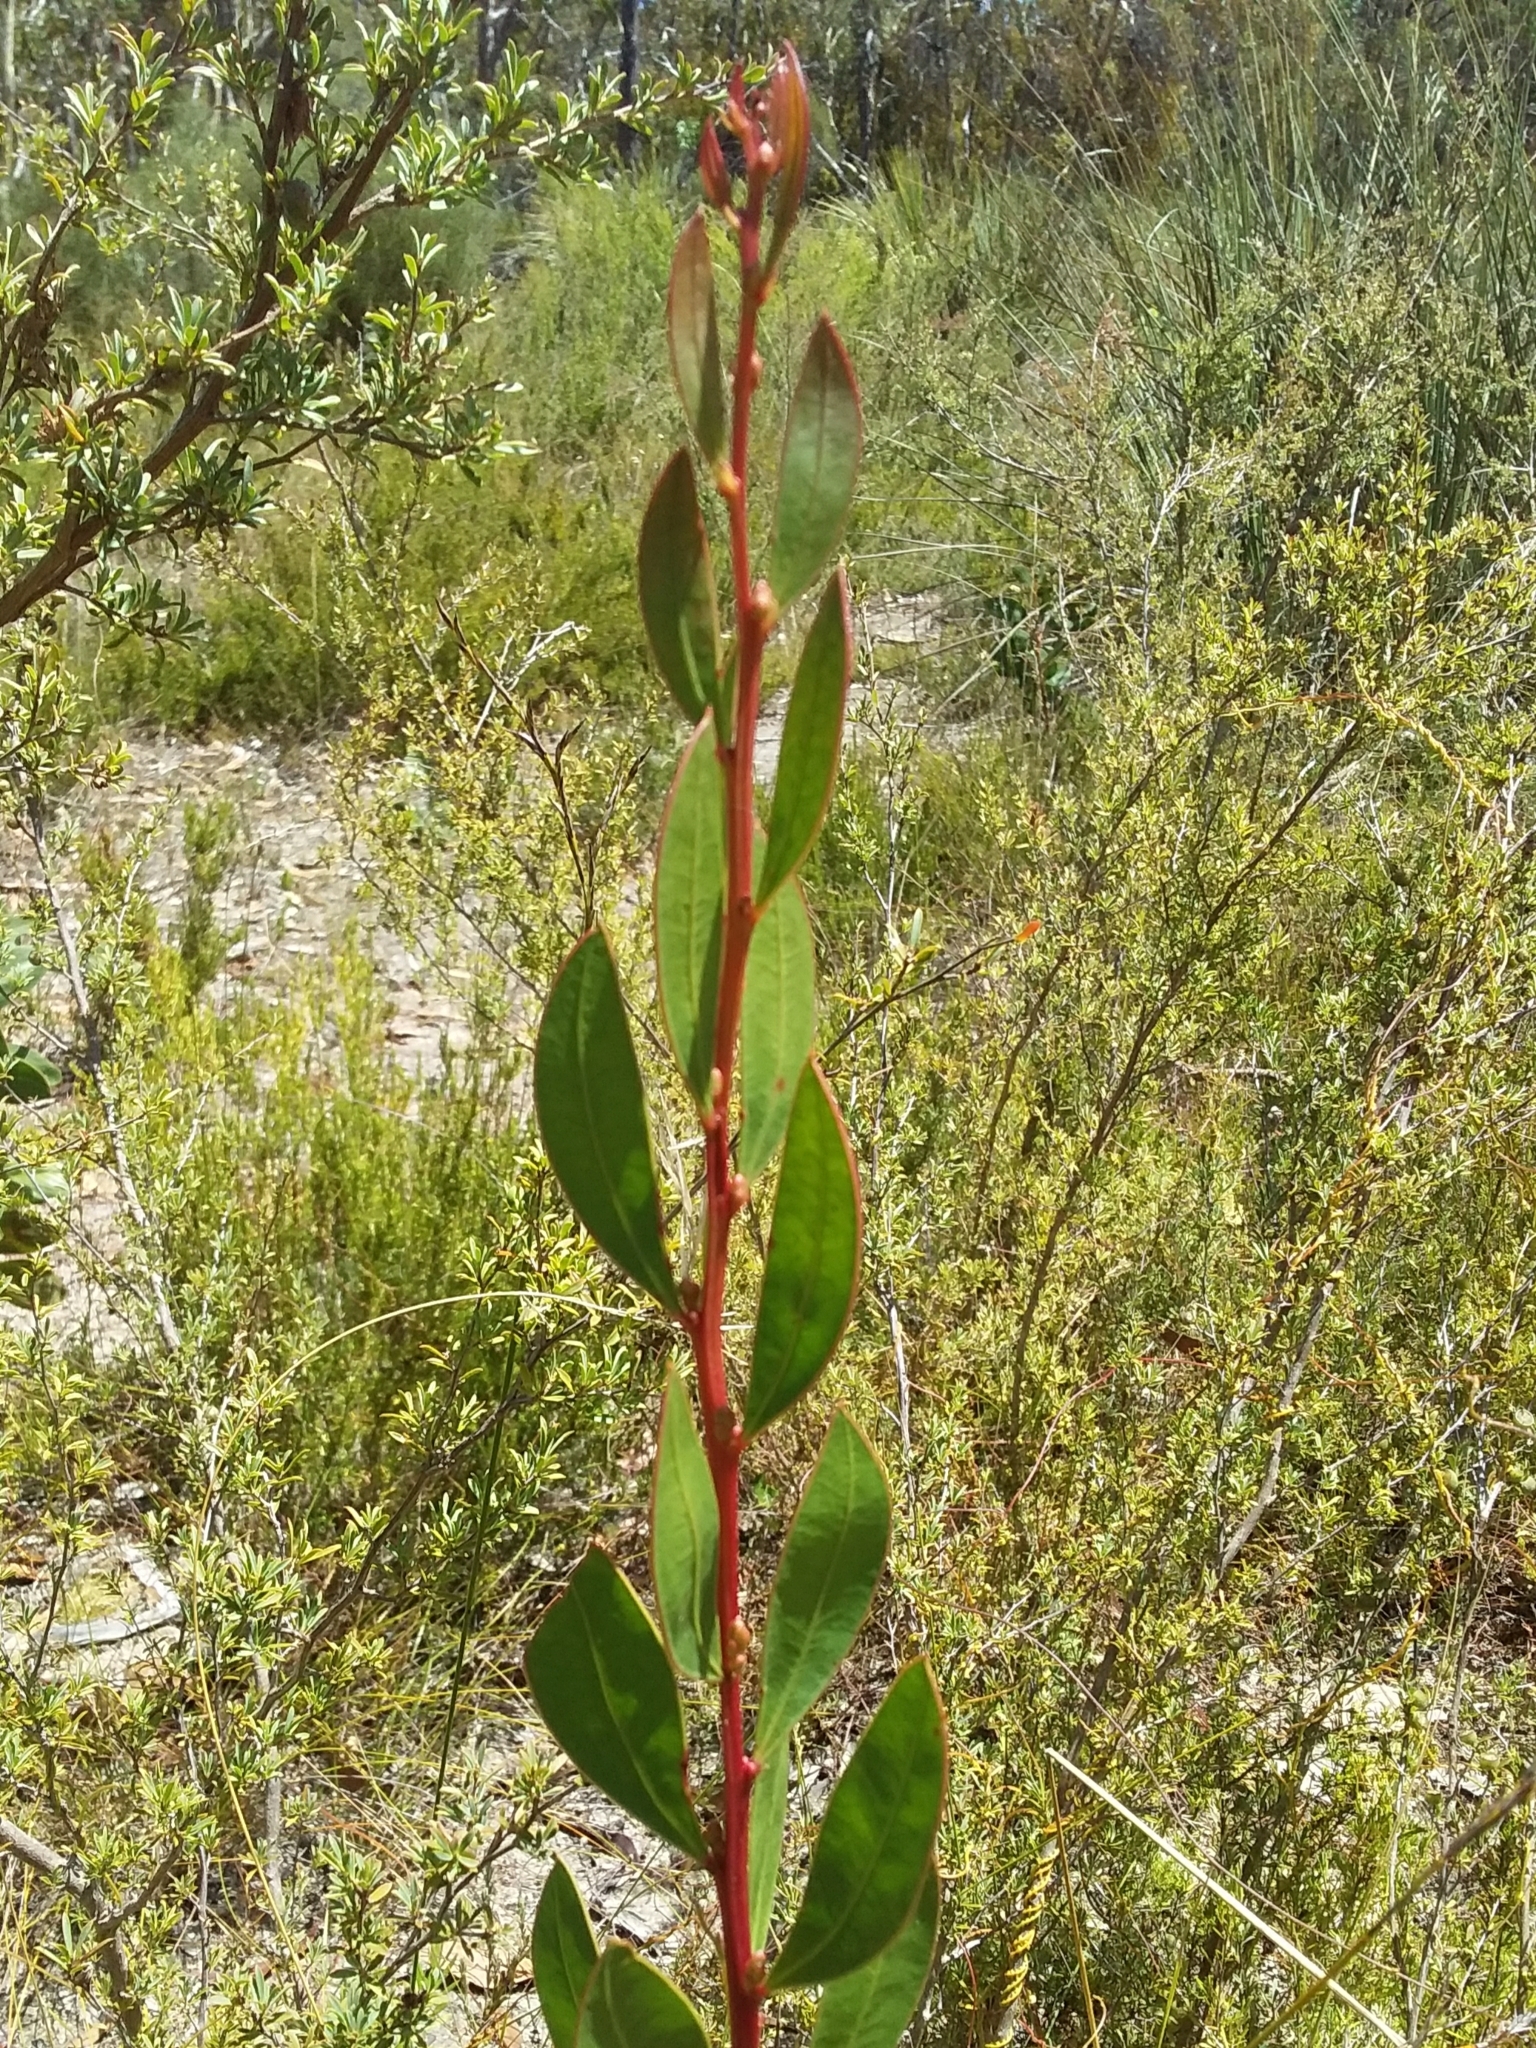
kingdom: Plantae
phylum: Tracheophyta
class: Magnoliopsida
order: Fabales
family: Fabaceae
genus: Acacia
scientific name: Acacia myrtifolia
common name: Myrtle wattle
